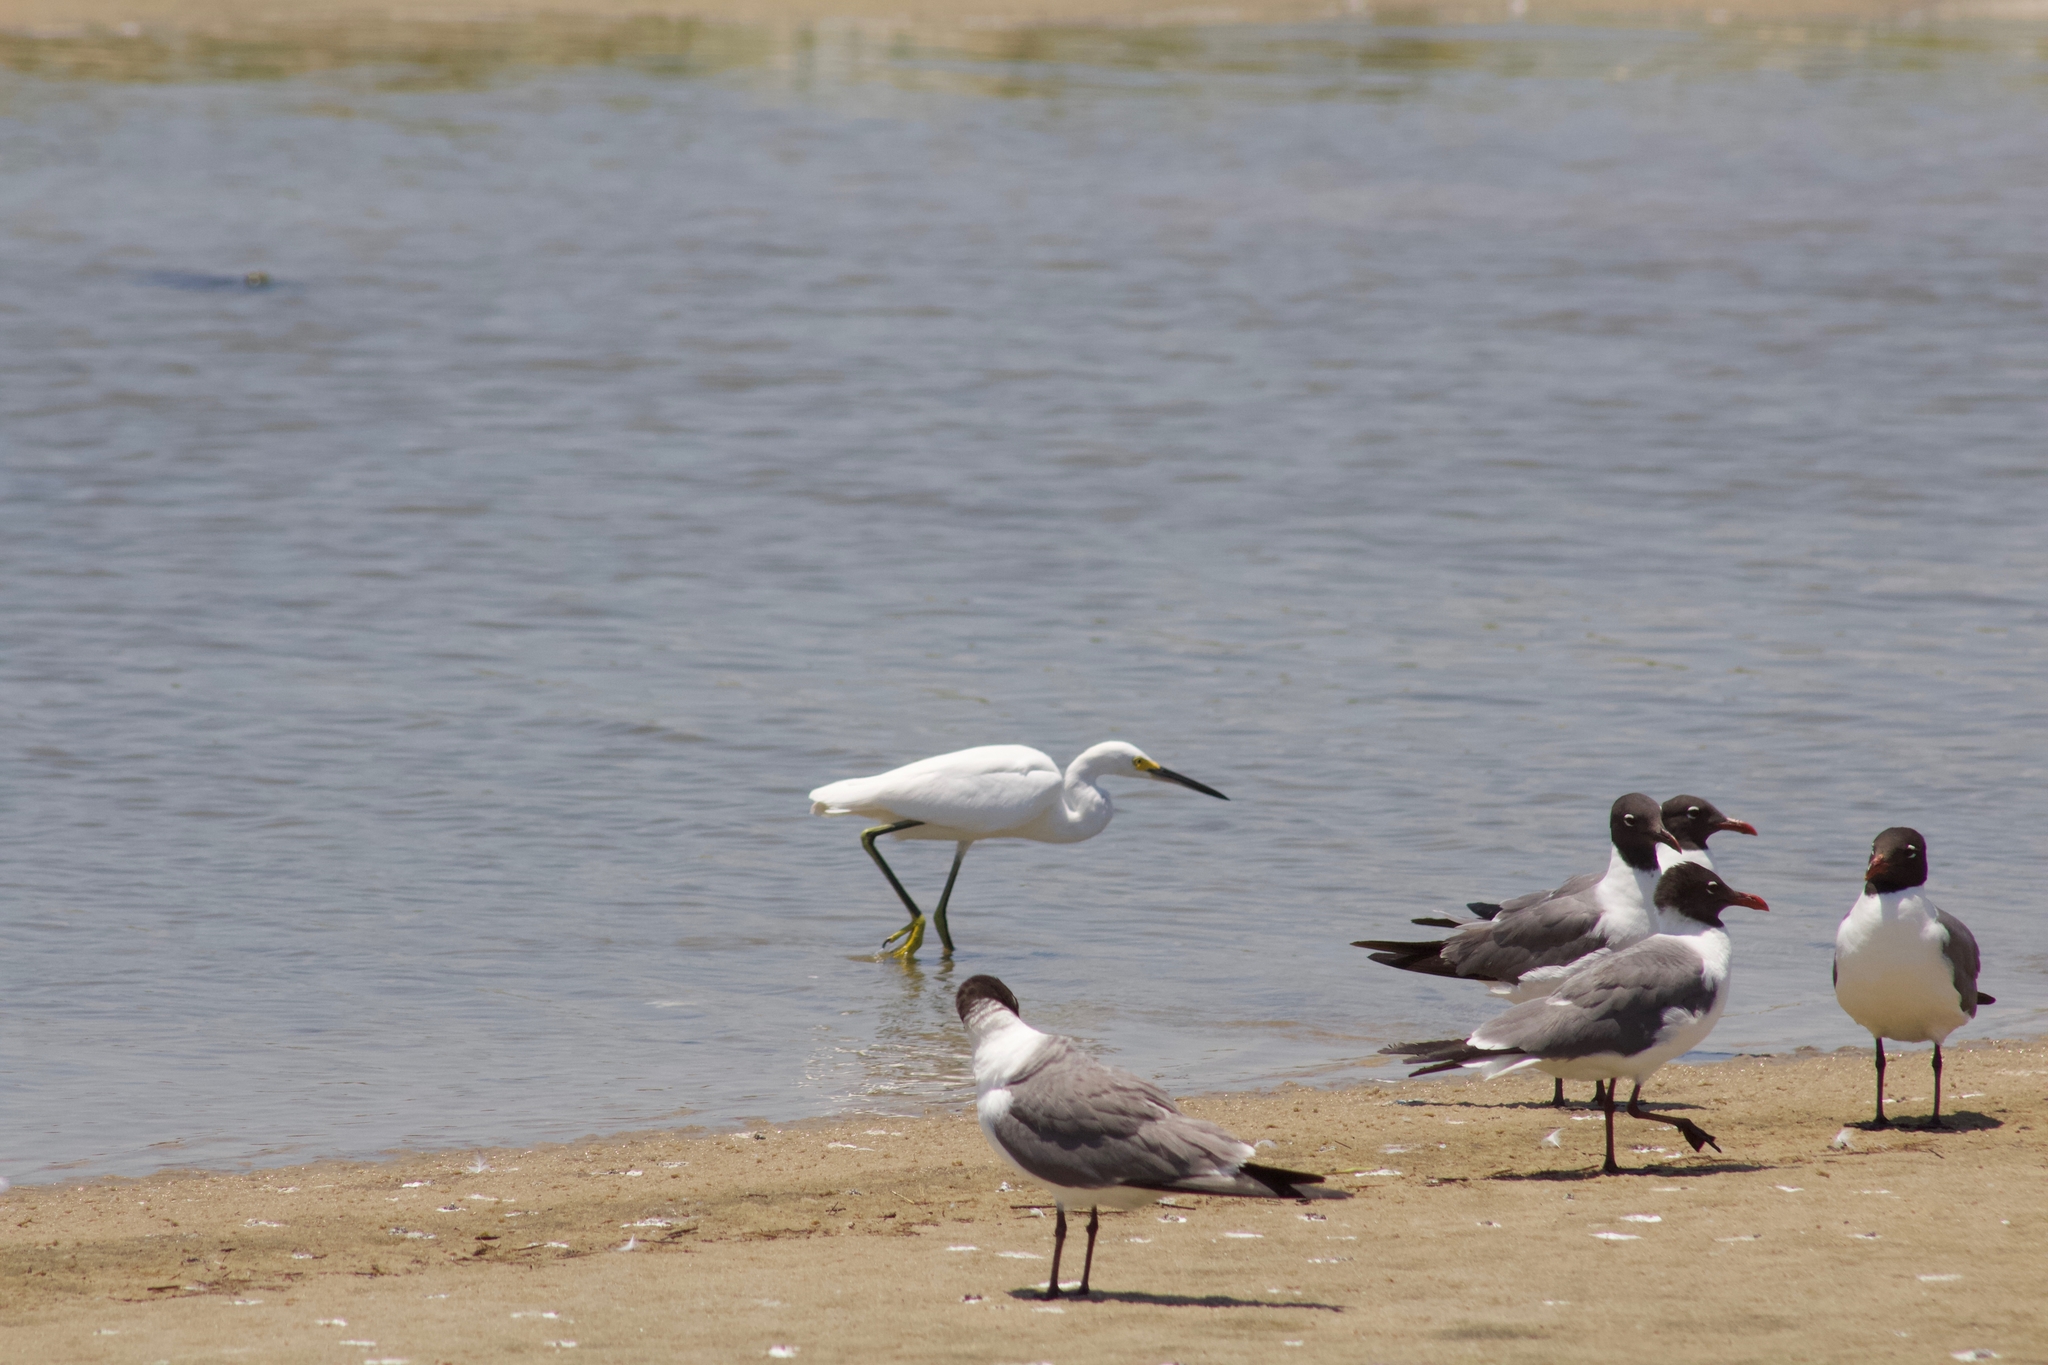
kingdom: Animalia
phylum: Chordata
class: Aves
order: Pelecaniformes
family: Ardeidae
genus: Egretta
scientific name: Egretta thula
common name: Snowy egret
